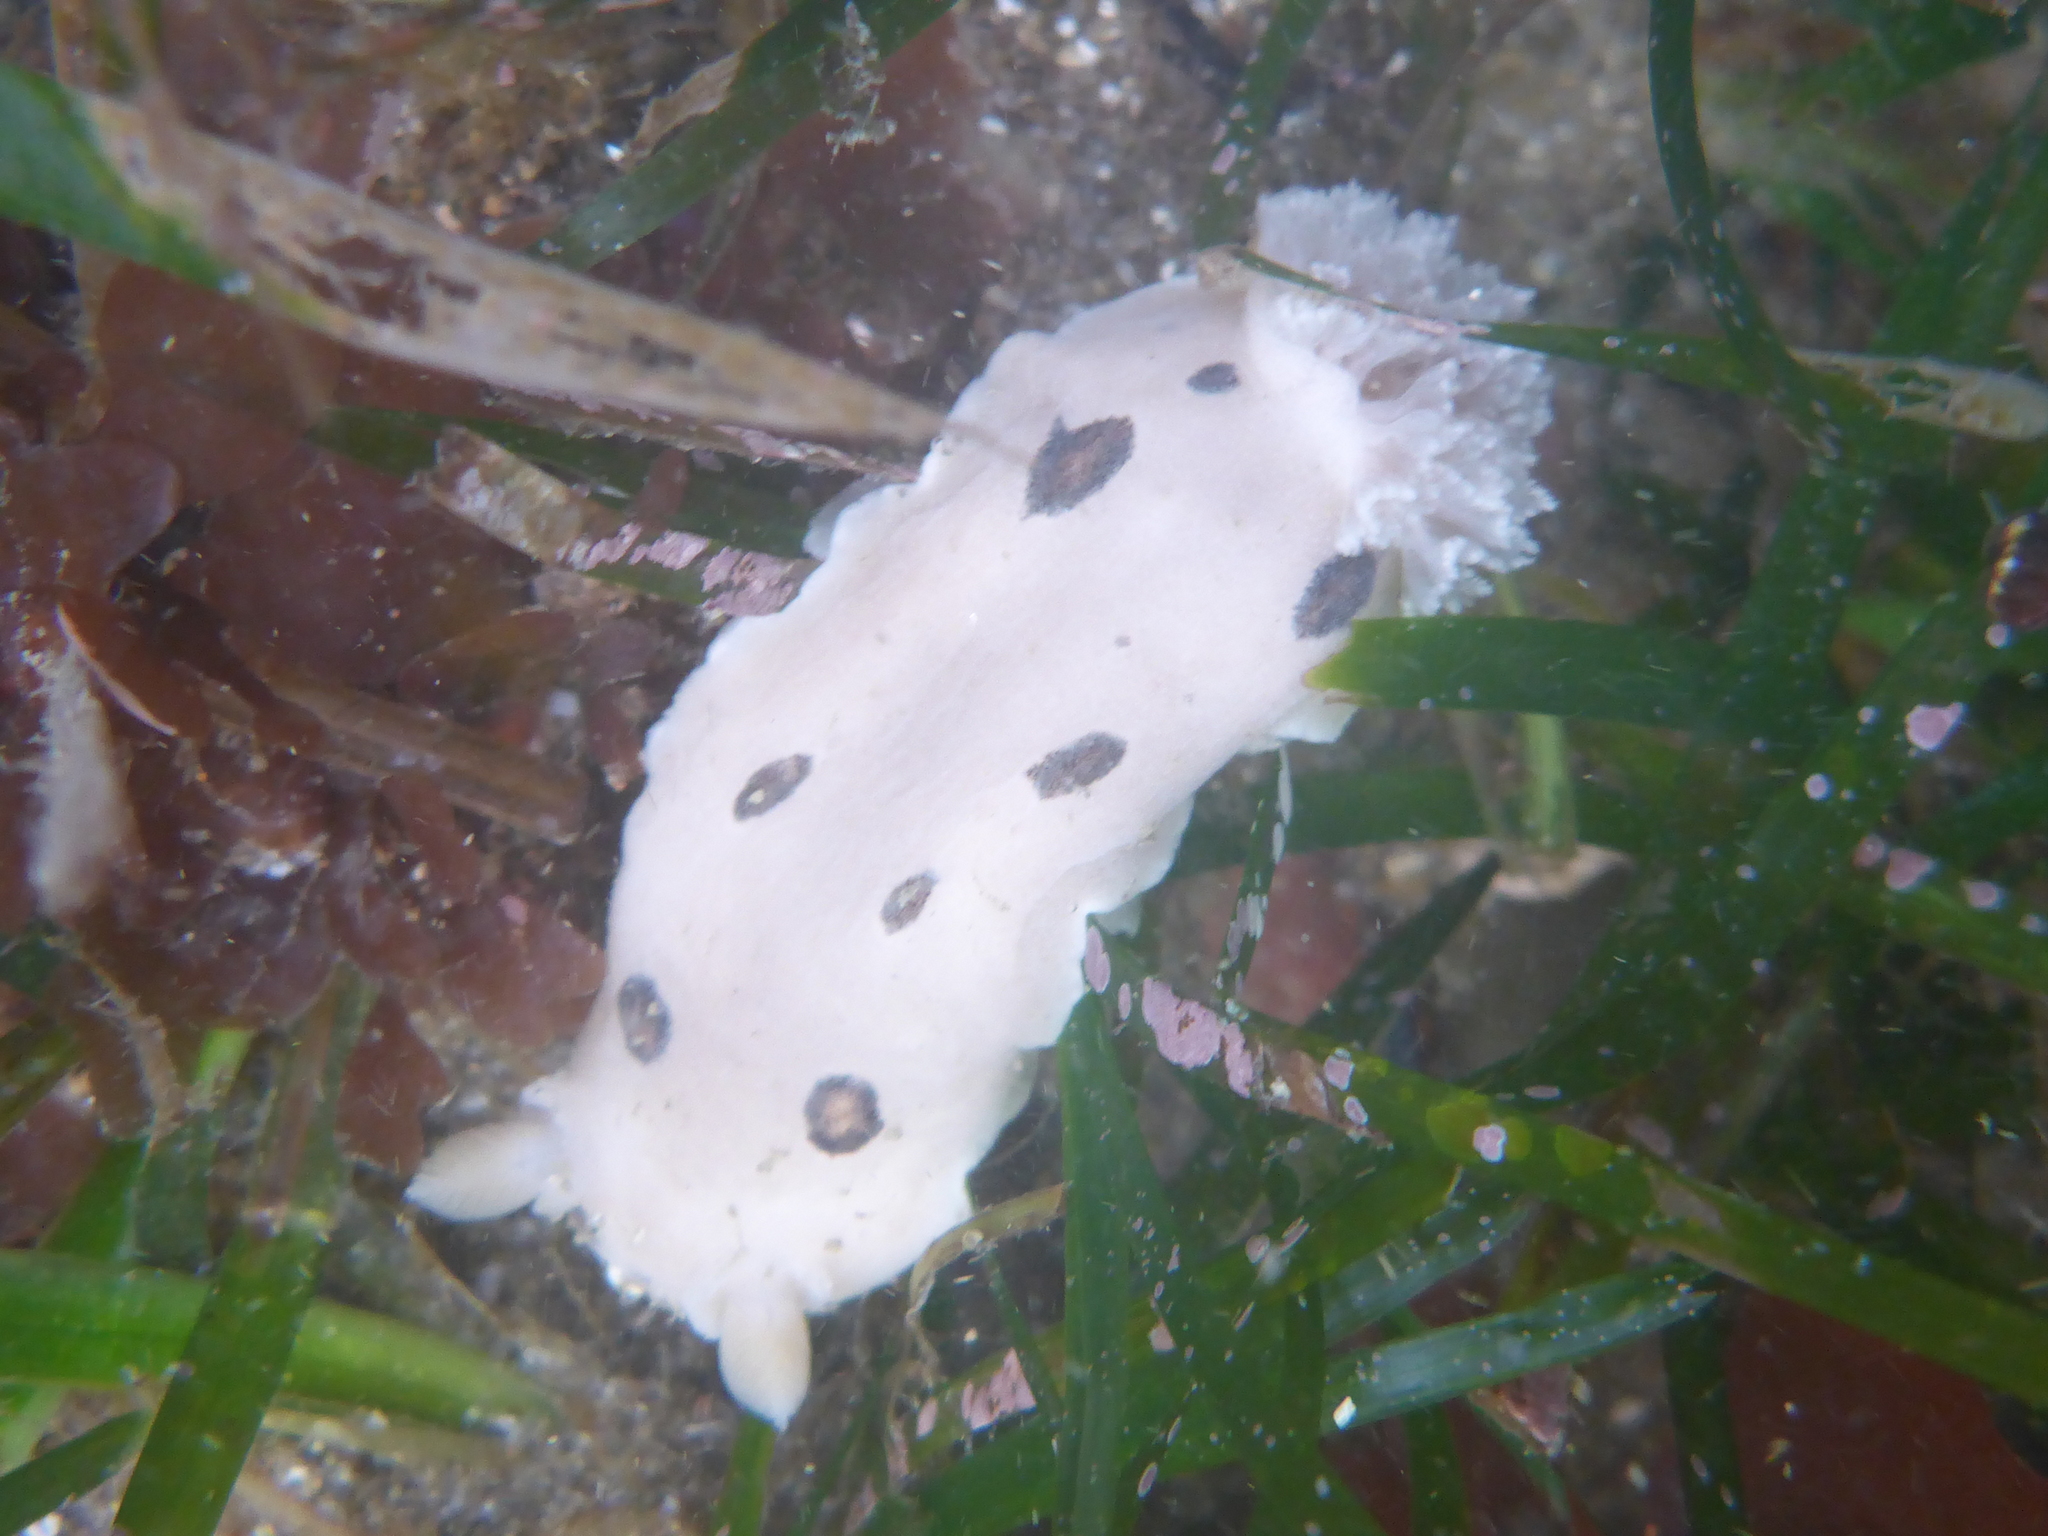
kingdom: Animalia
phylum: Mollusca
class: Gastropoda
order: Nudibranchia
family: Discodorididae
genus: Diaulula
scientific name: Diaulula sandiegensis
